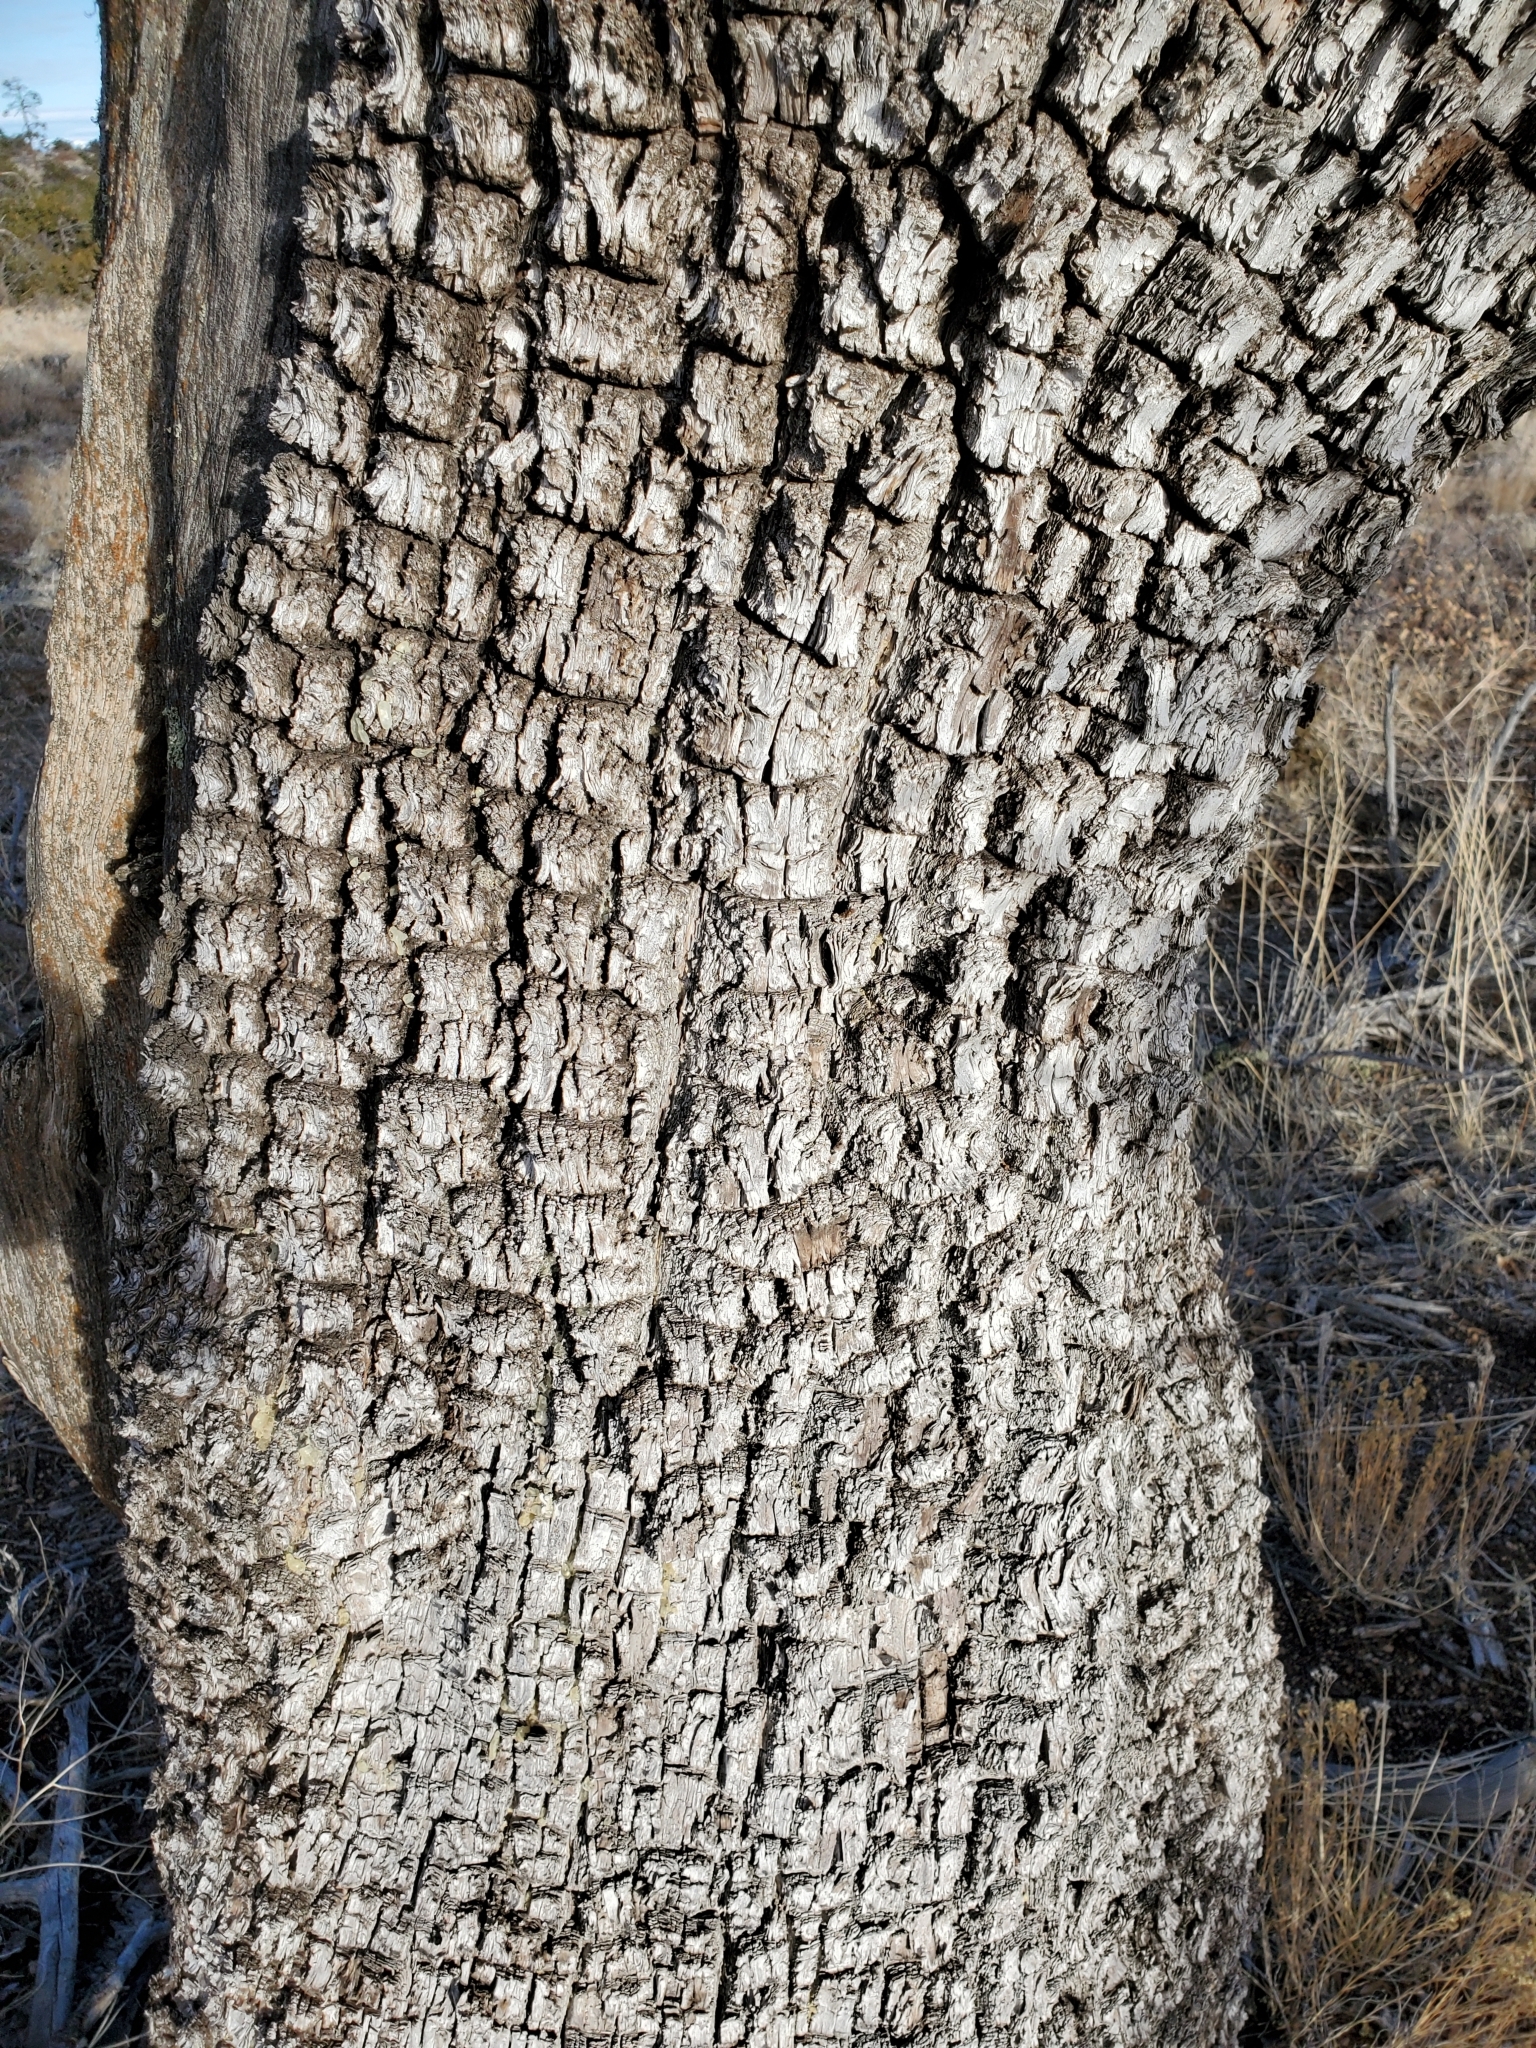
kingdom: Plantae
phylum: Tracheophyta
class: Pinopsida
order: Pinales
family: Cupressaceae
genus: Juniperus
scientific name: Juniperus deppeana
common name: Alligator juniper
